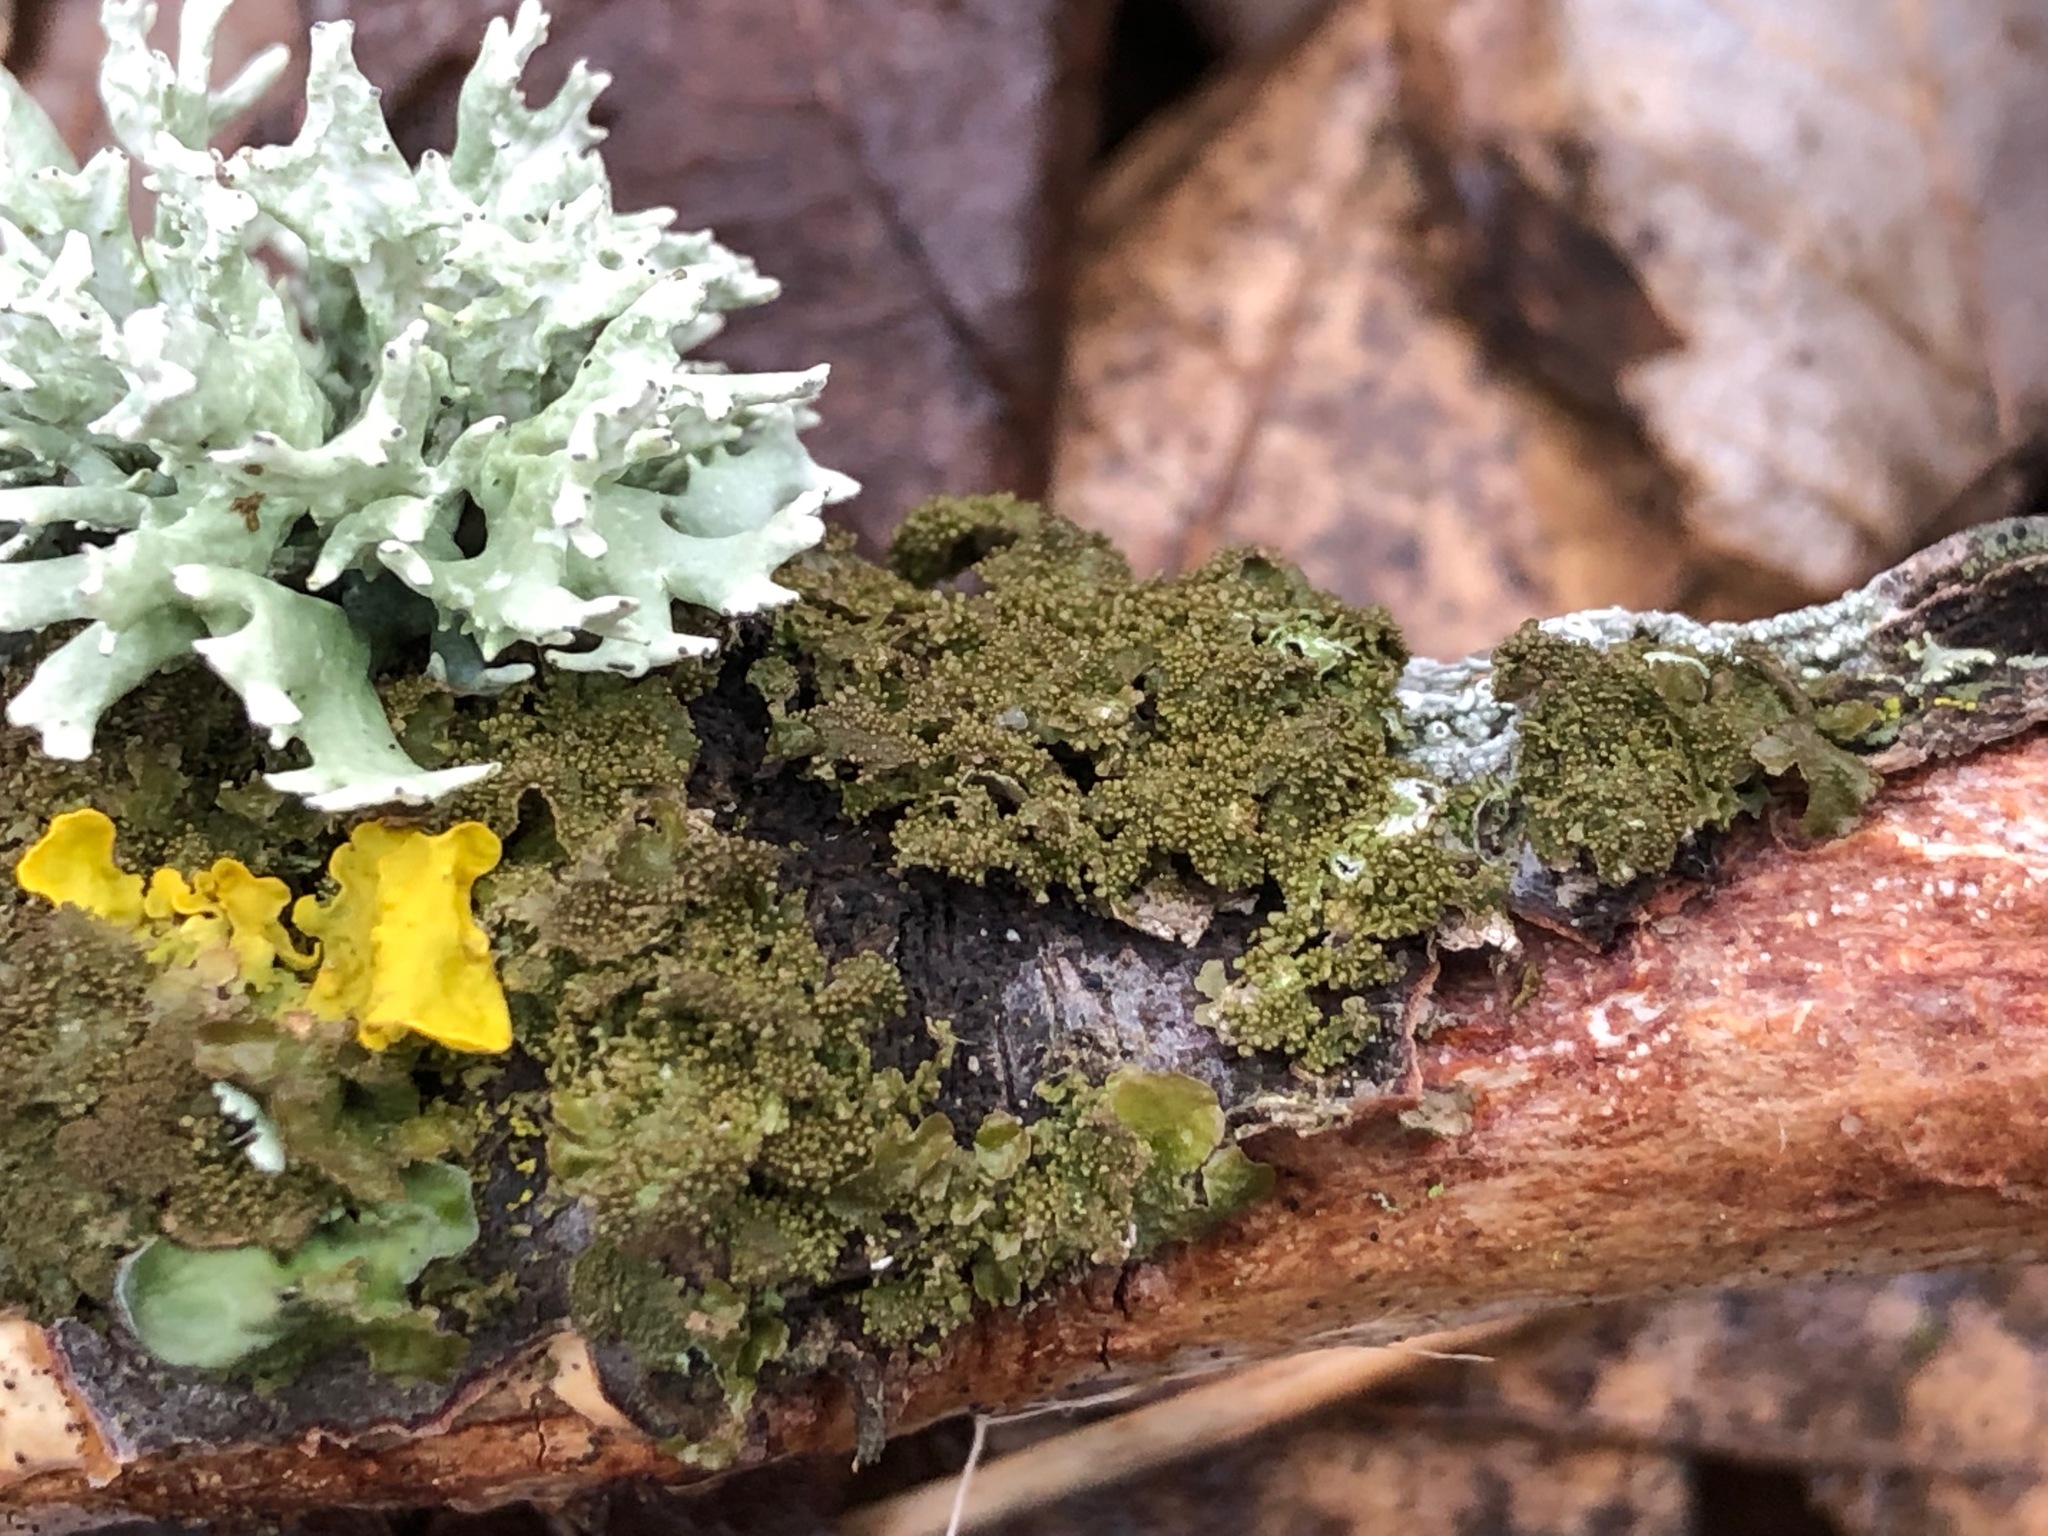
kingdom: Fungi
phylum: Ascomycota
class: Lecanoromycetes
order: Lecanorales
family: Parmeliaceae
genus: Melanohalea
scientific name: Melanohalea exasperatula
